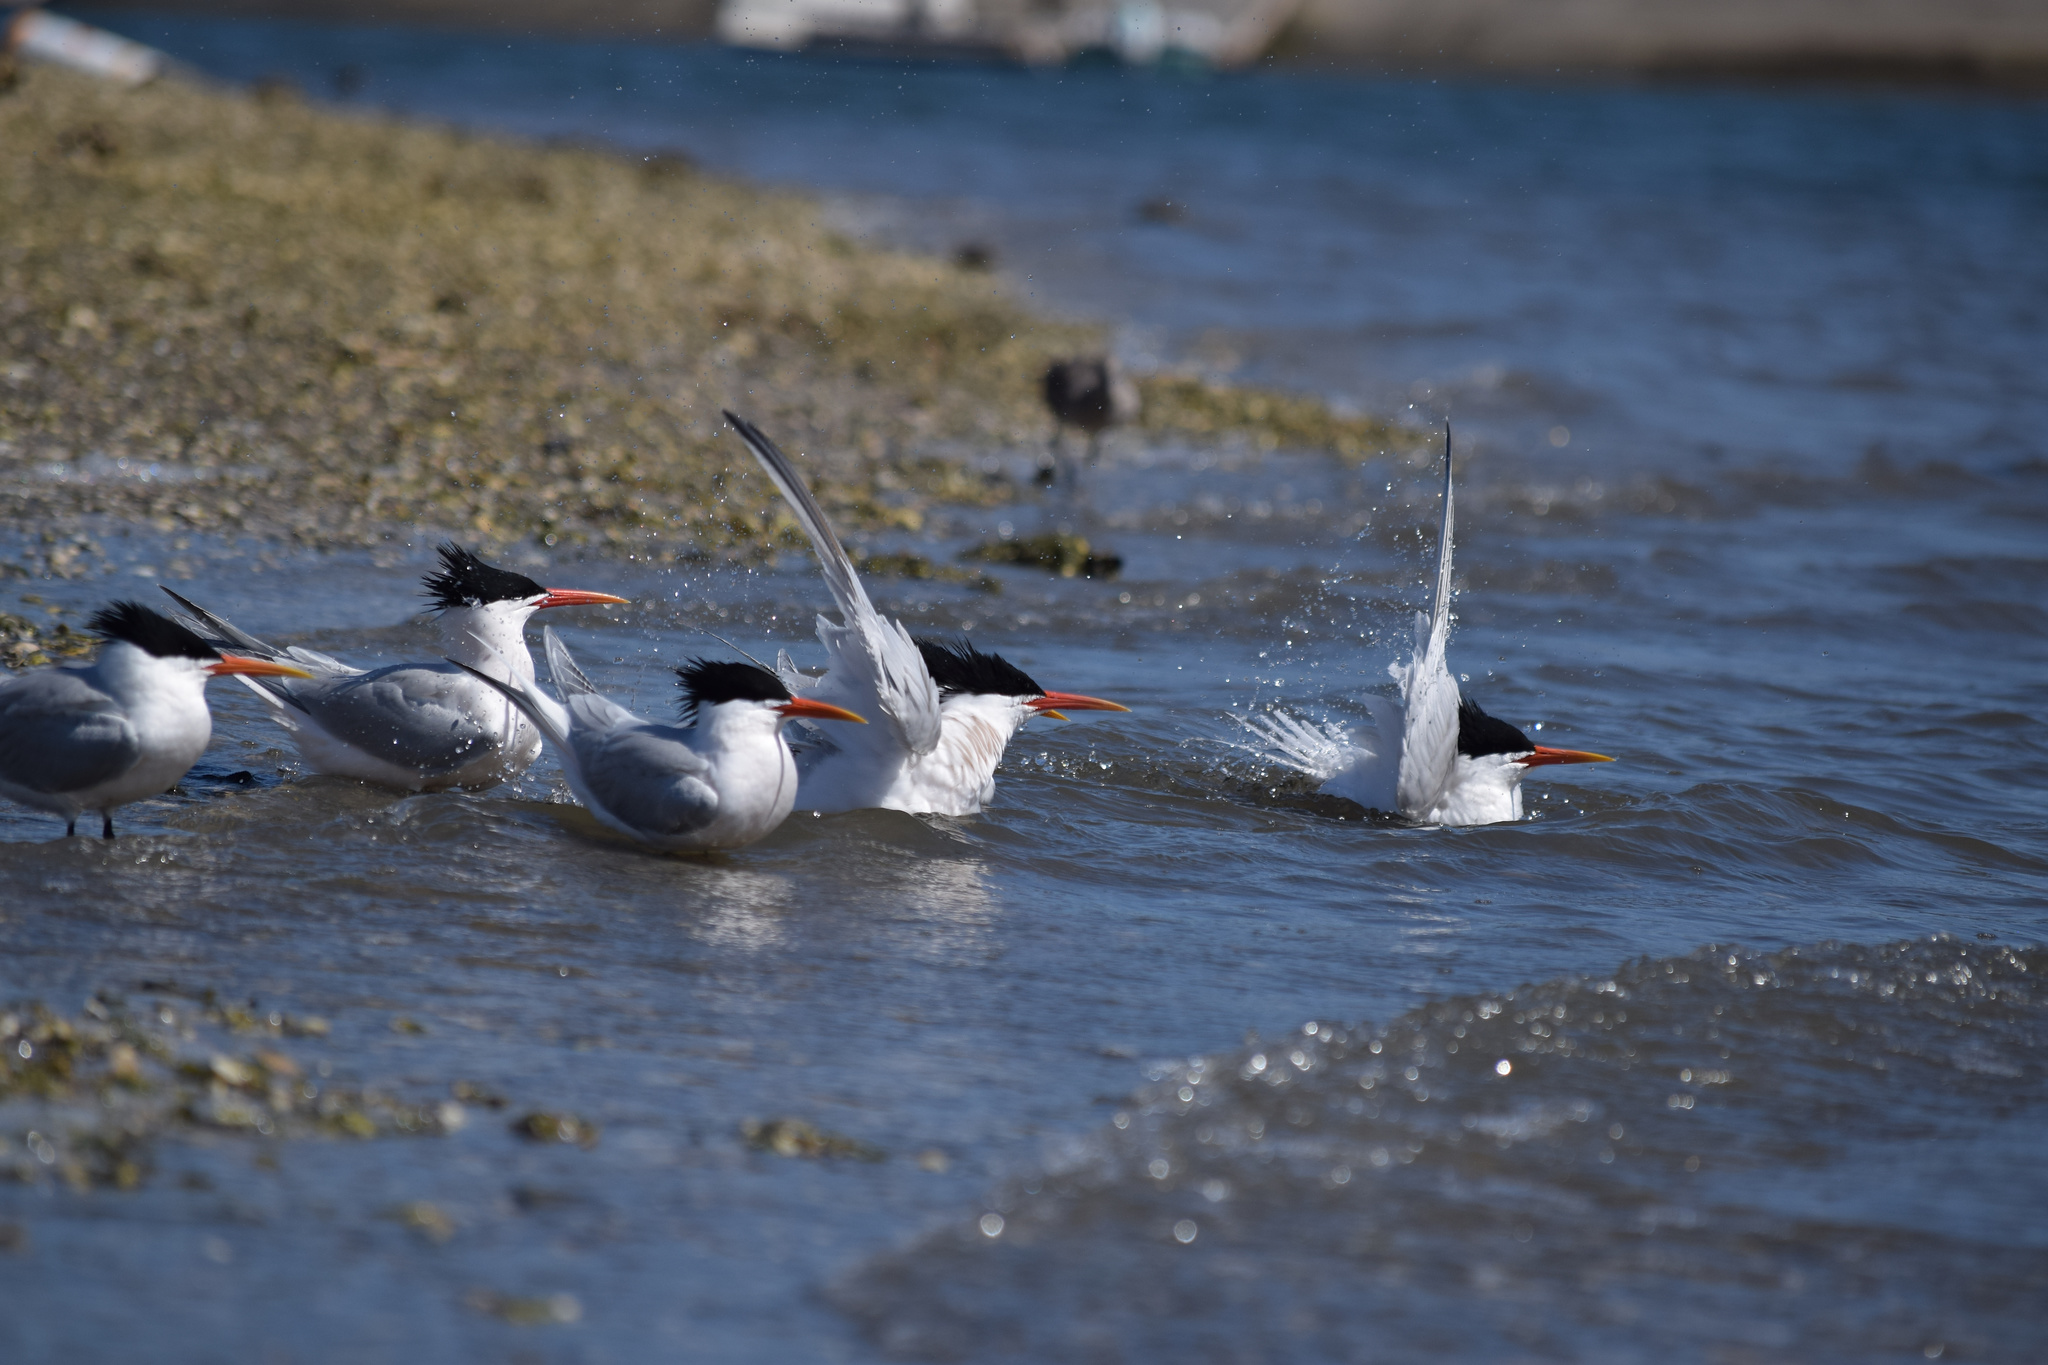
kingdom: Animalia
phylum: Chordata
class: Aves
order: Charadriiformes
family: Laridae
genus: Thalasseus
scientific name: Thalasseus elegans
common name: Elegant tern
